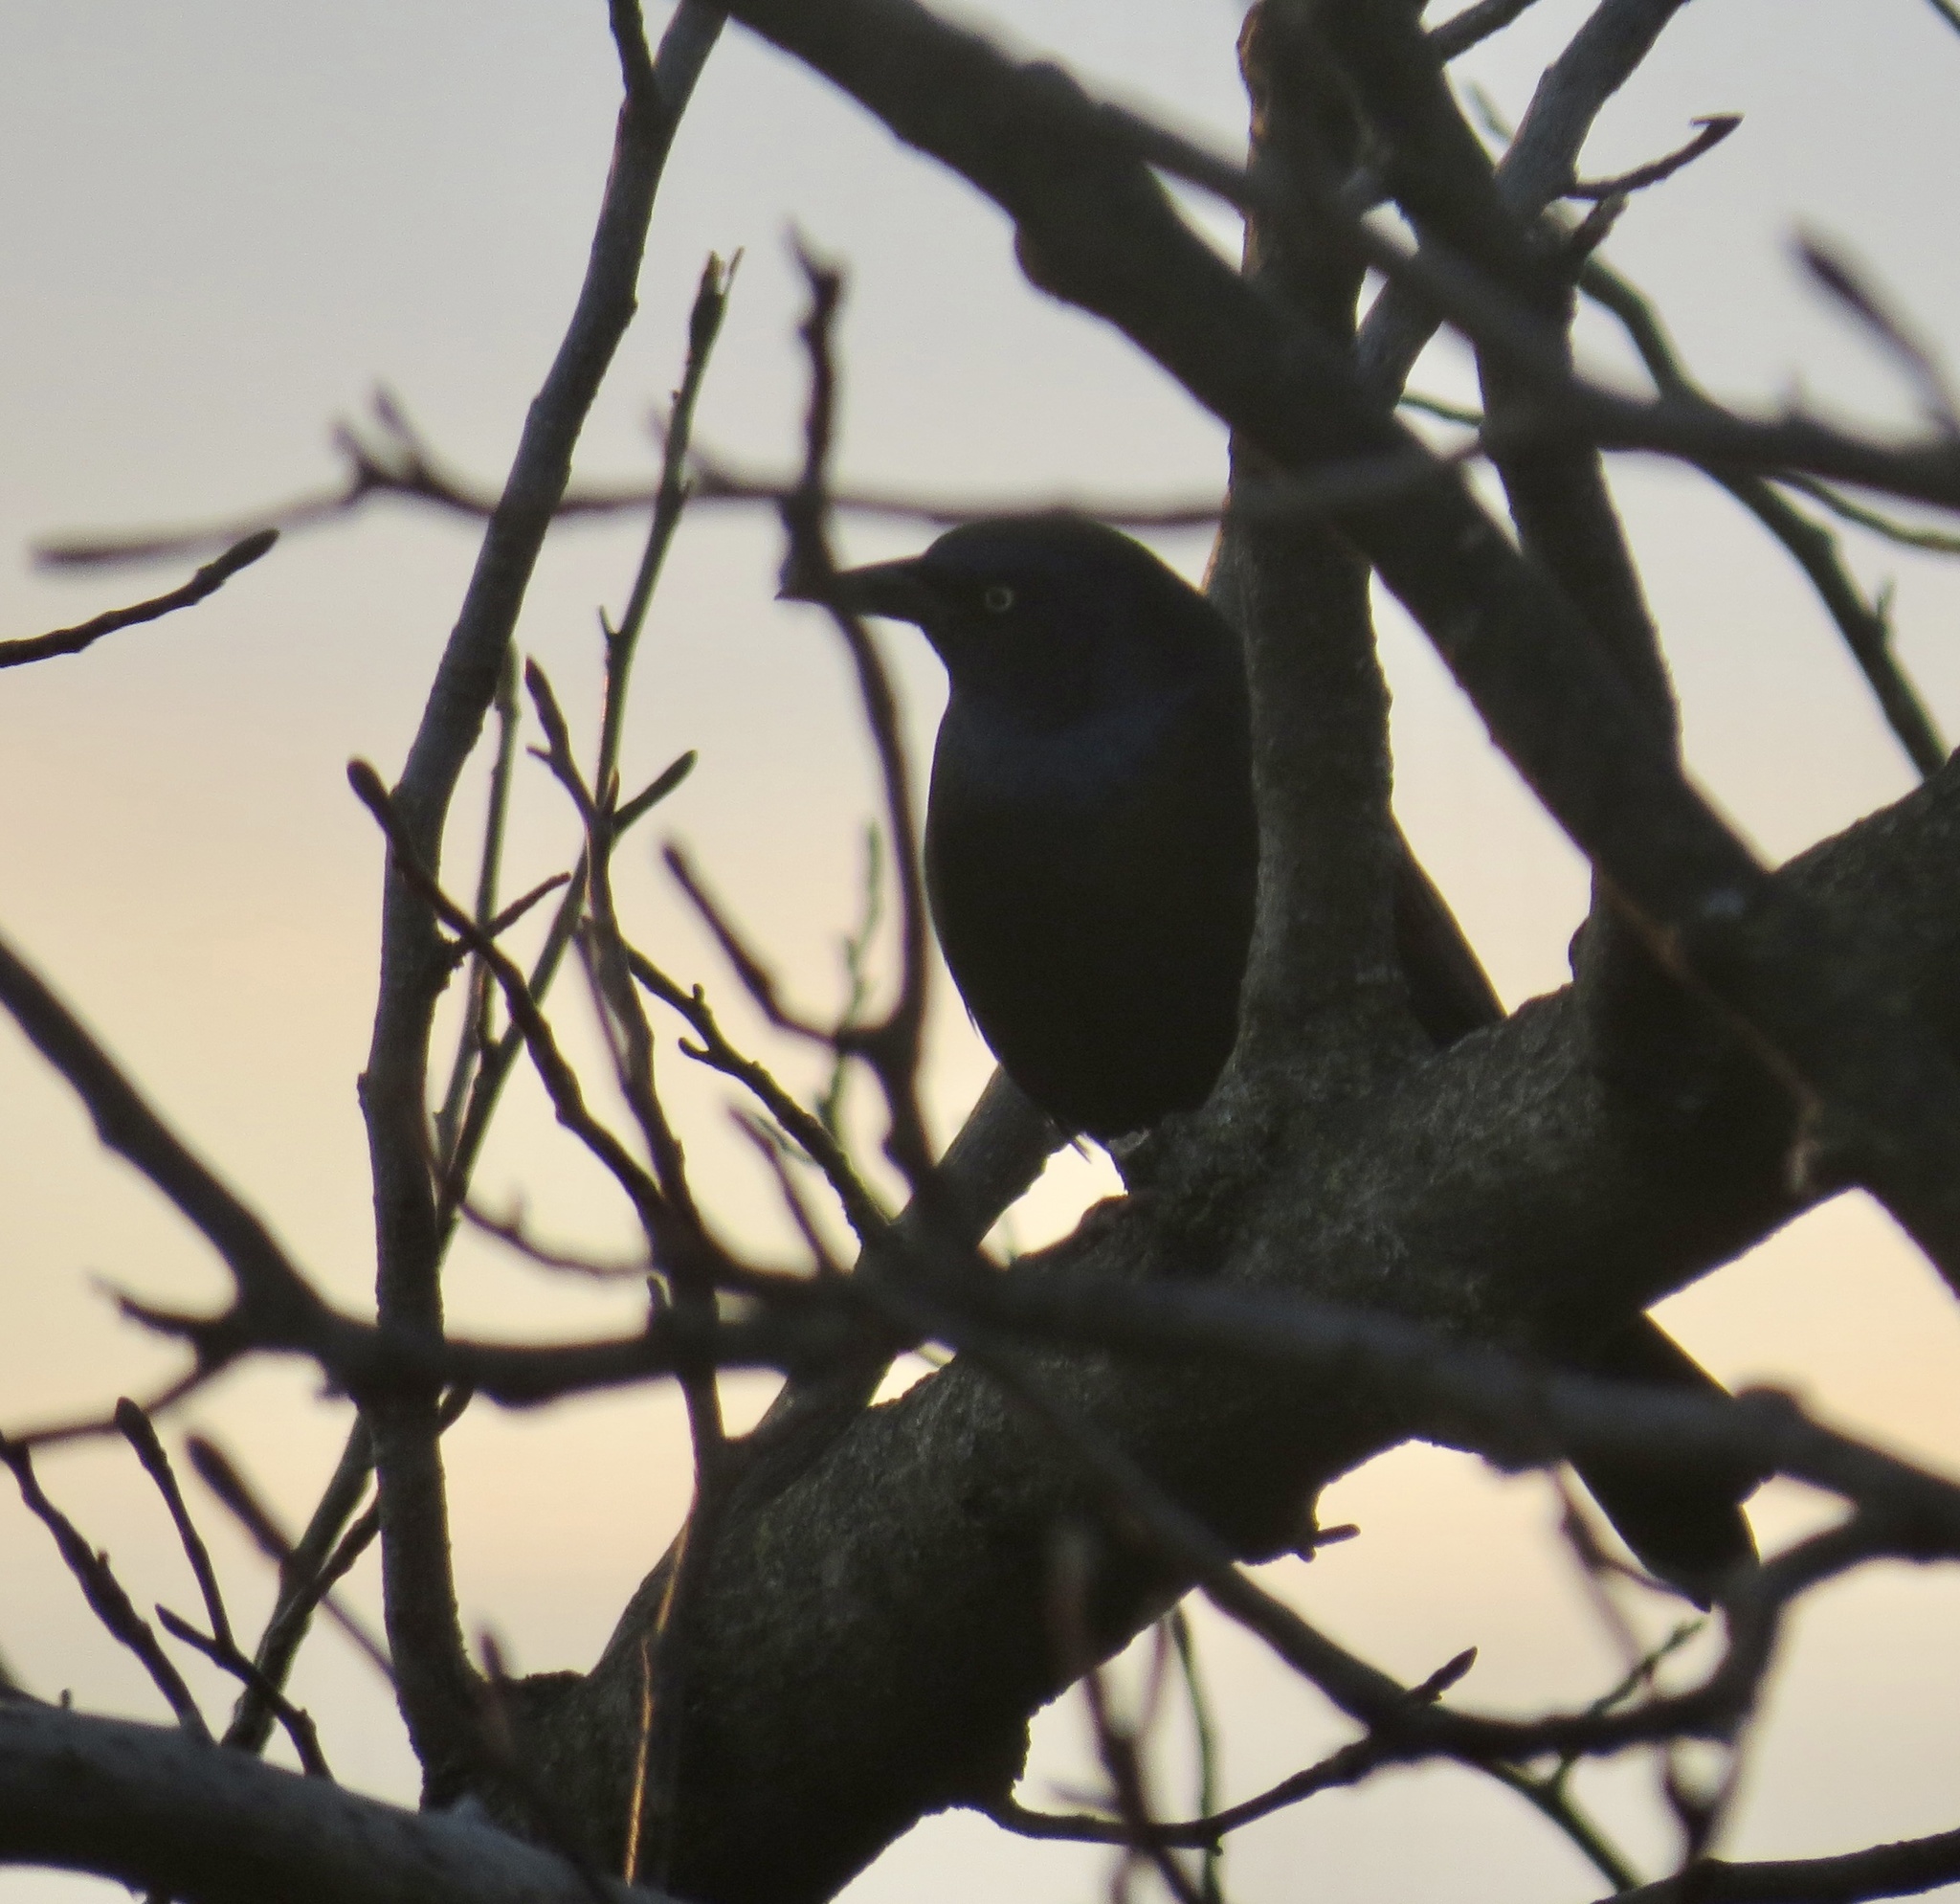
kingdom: Animalia
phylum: Chordata
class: Aves
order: Passeriformes
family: Icteridae
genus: Quiscalus
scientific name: Quiscalus quiscula
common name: Common grackle
